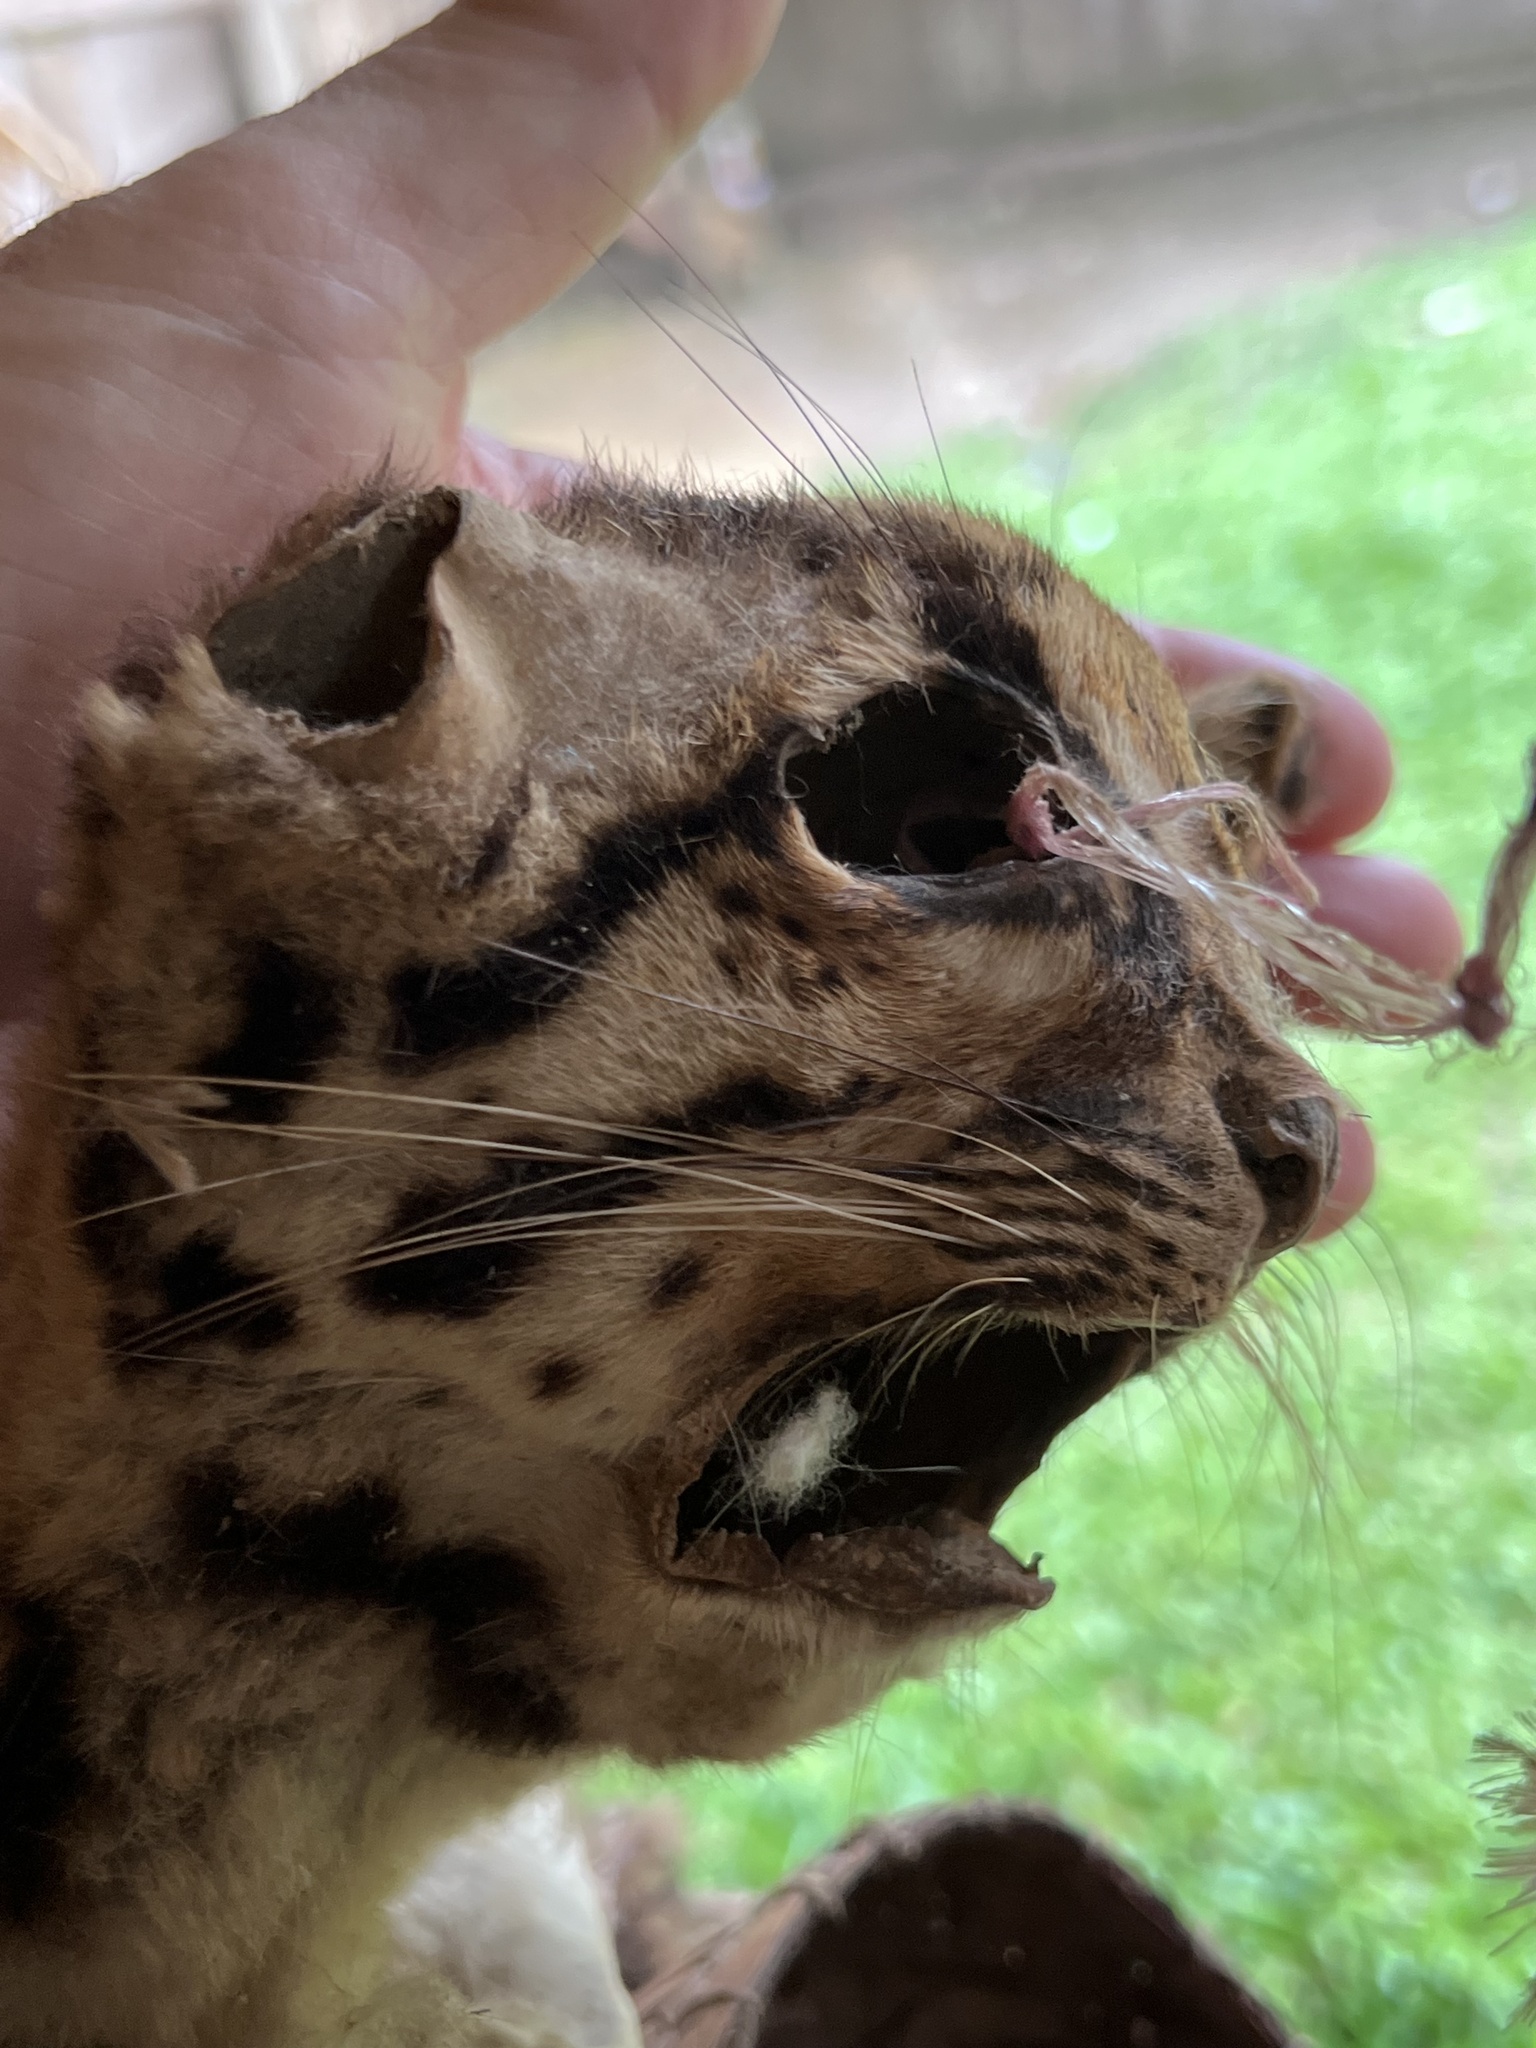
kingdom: Animalia
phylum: Chordata
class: Mammalia
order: Carnivora
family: Felidae
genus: Leopardus
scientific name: Leopardus wiedii
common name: Margay
